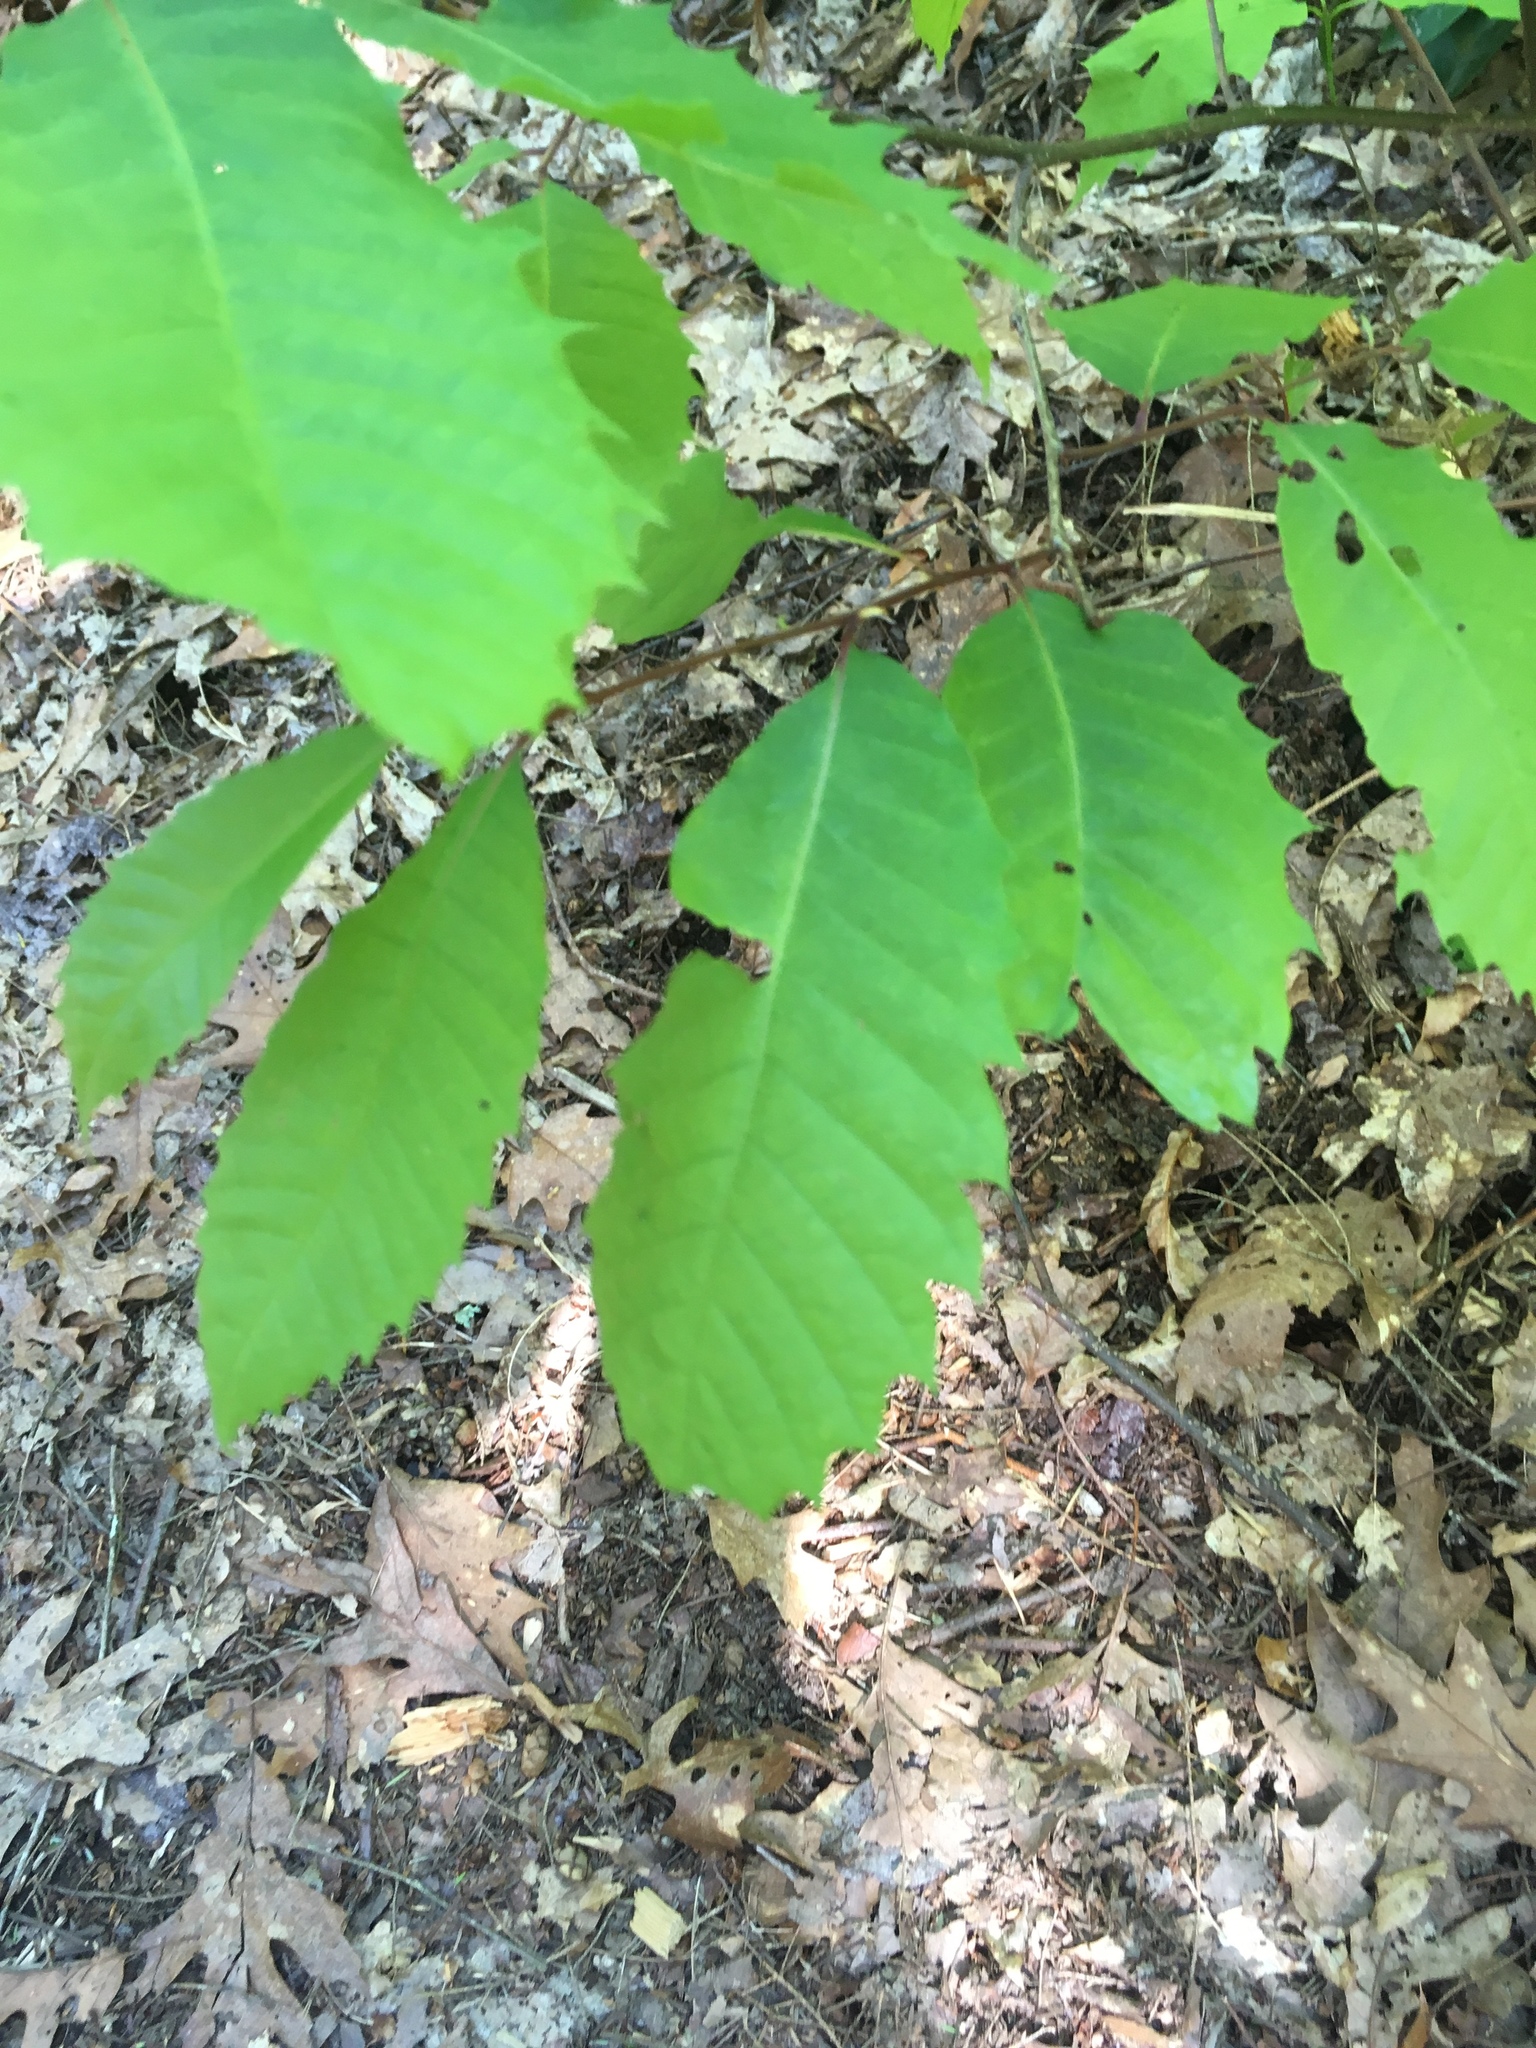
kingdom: Plantae
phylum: Tracheophyta
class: Magnoliopsida
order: Fagales
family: Fagaceae
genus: Castanea
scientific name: Castanea dentata
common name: American chestnut
